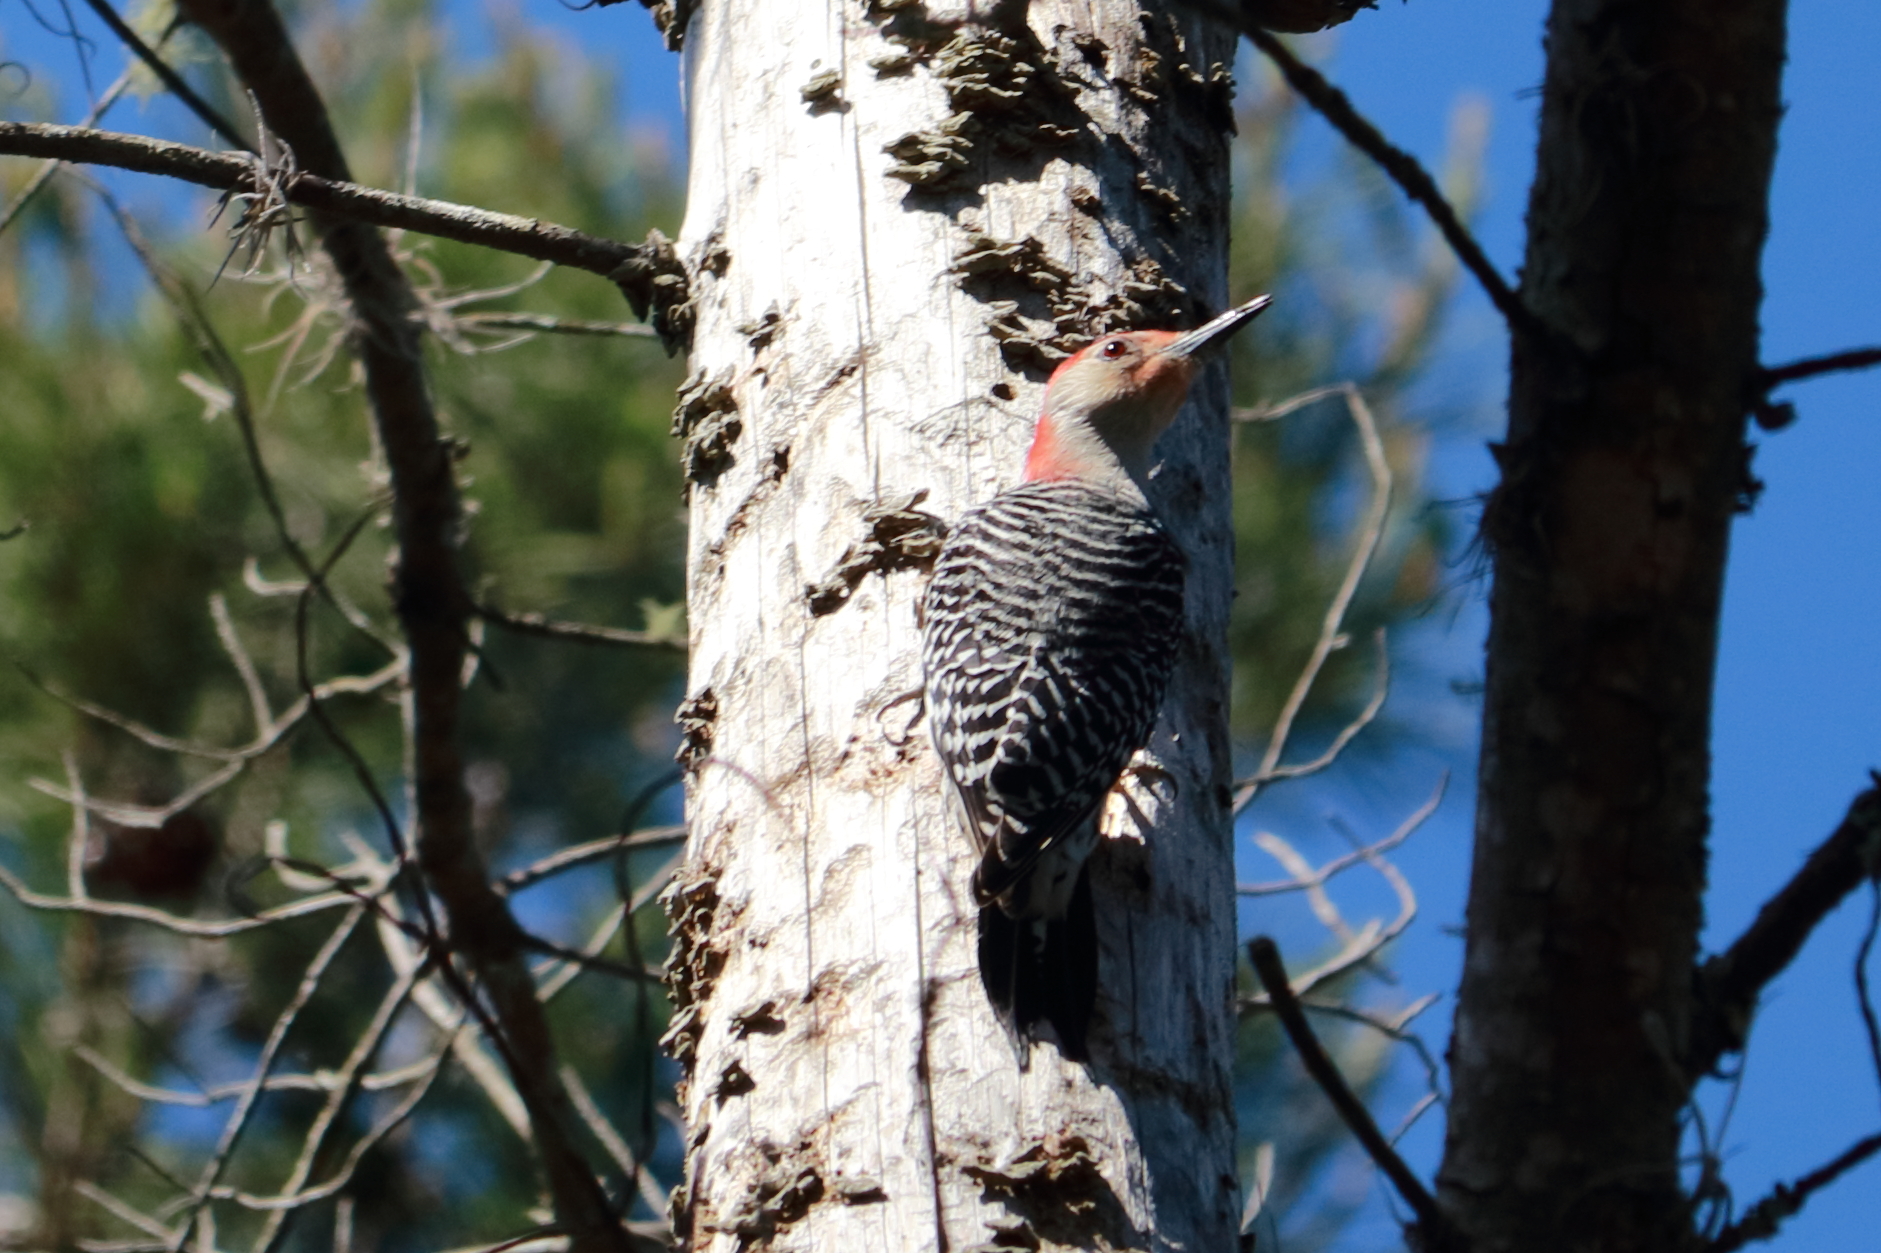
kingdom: Animalia
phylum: Chordata
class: Aves
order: Piciformes
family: Picidae
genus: Melanerpes
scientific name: Melanerpes carolinus
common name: Red-bellied woodpecker
